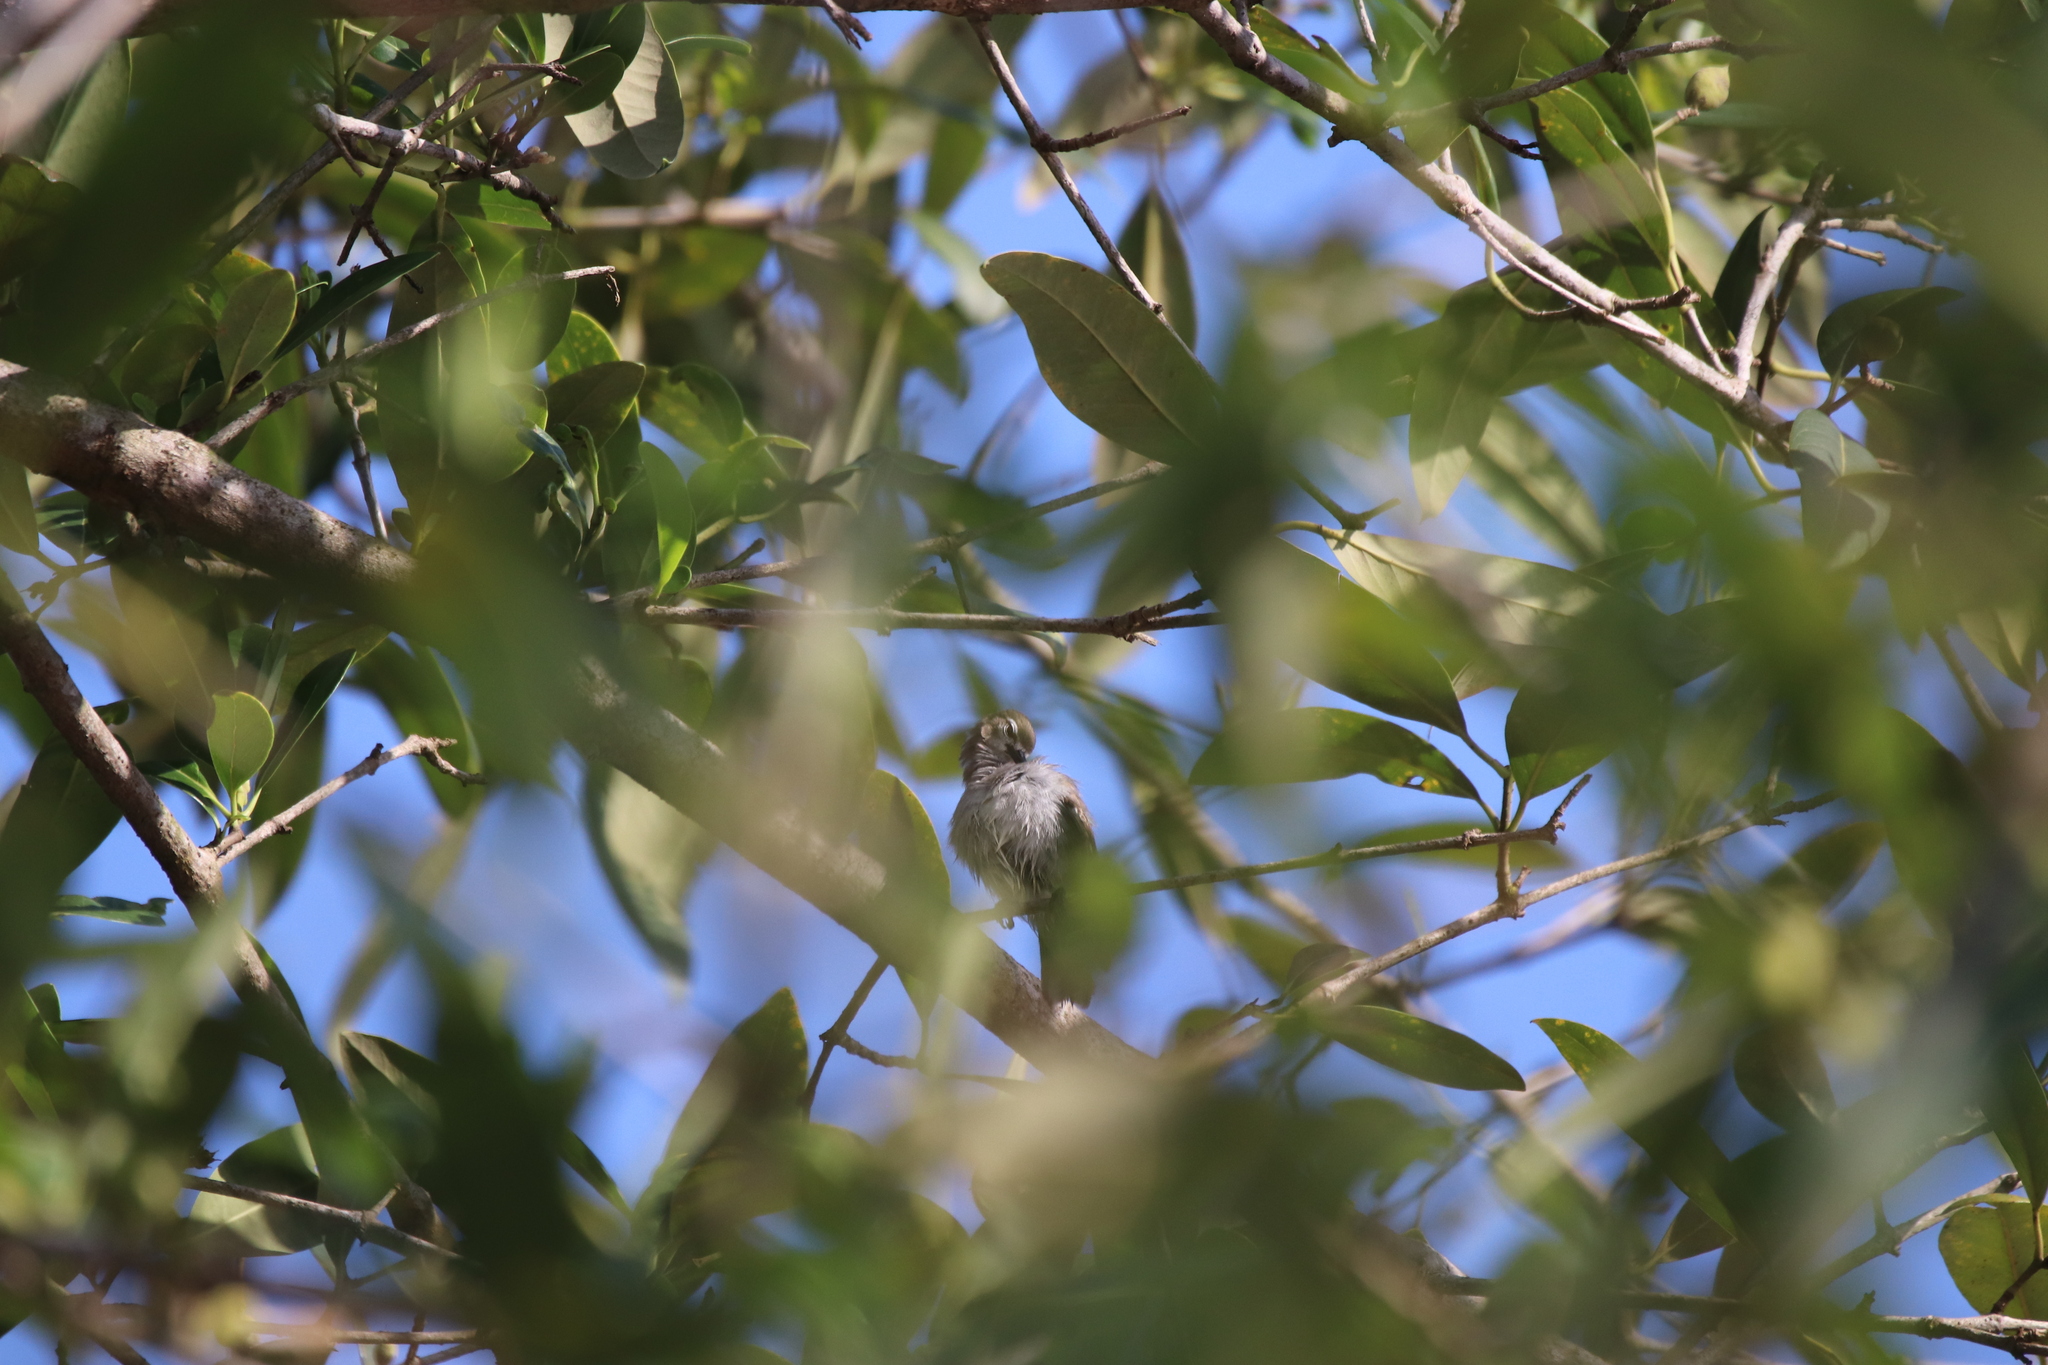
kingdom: Animalia
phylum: Chordata
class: Aves
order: Passeriformes
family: Nectariniidae
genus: Anthreptes
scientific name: Anthreptes gabonicus
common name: Mangrove sunbird
